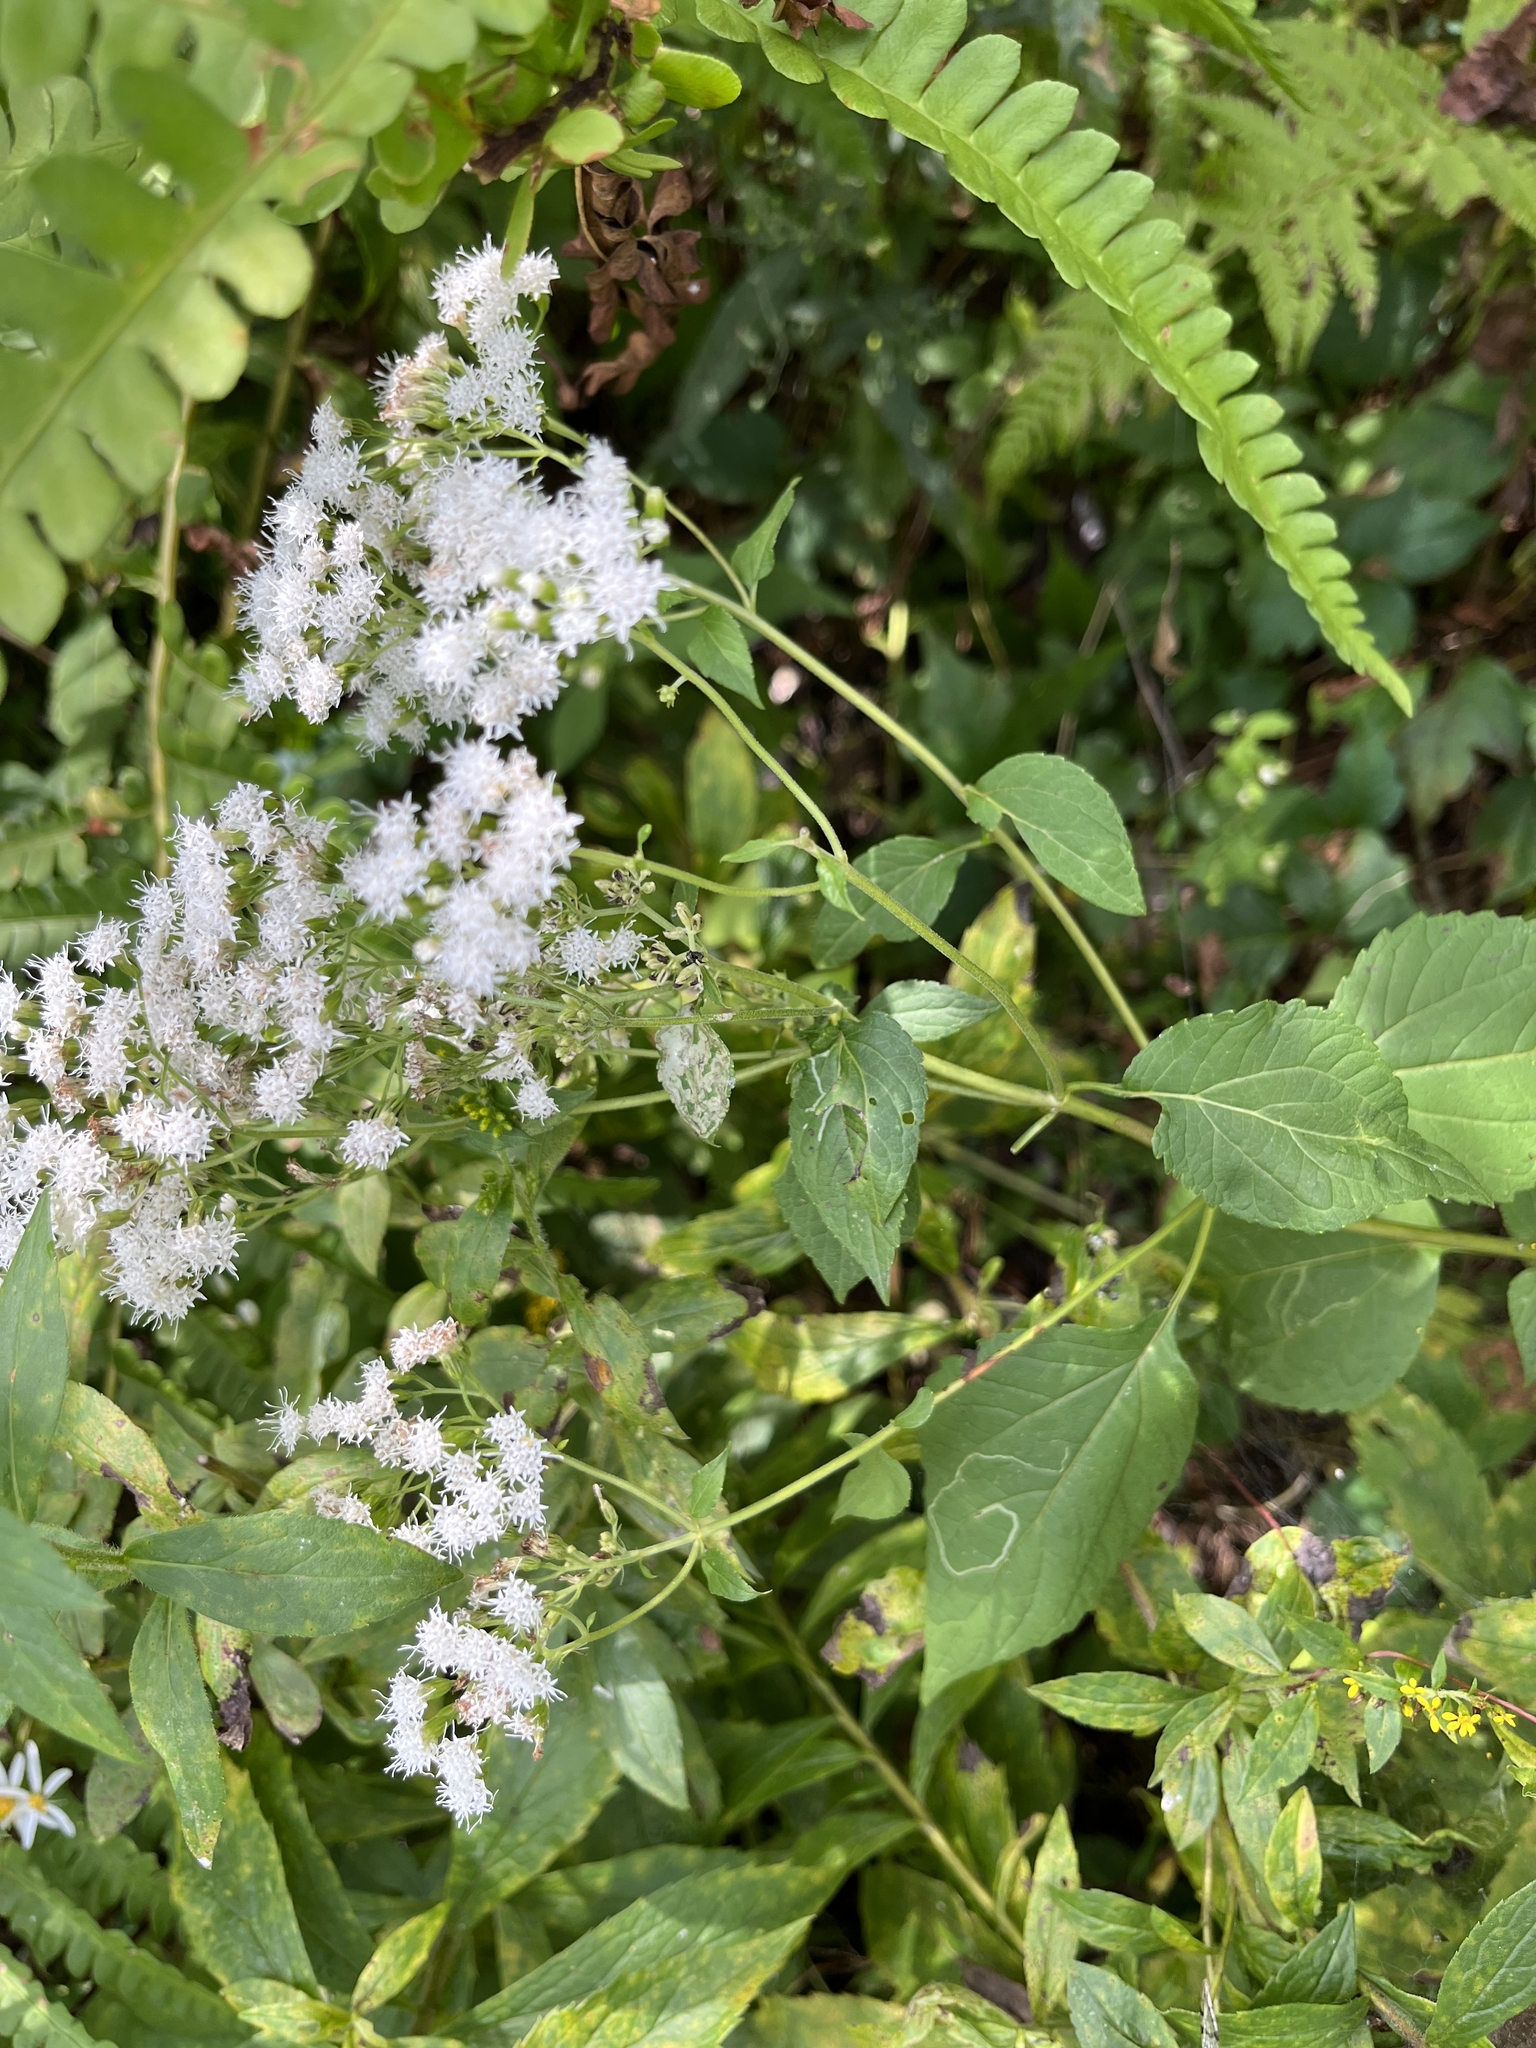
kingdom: Plantae
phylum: Tracheophyta
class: Magnoliopsida
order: Asterales
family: Asteraceae
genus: Ageratina
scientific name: Ageratina altissima
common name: White snakeroot
